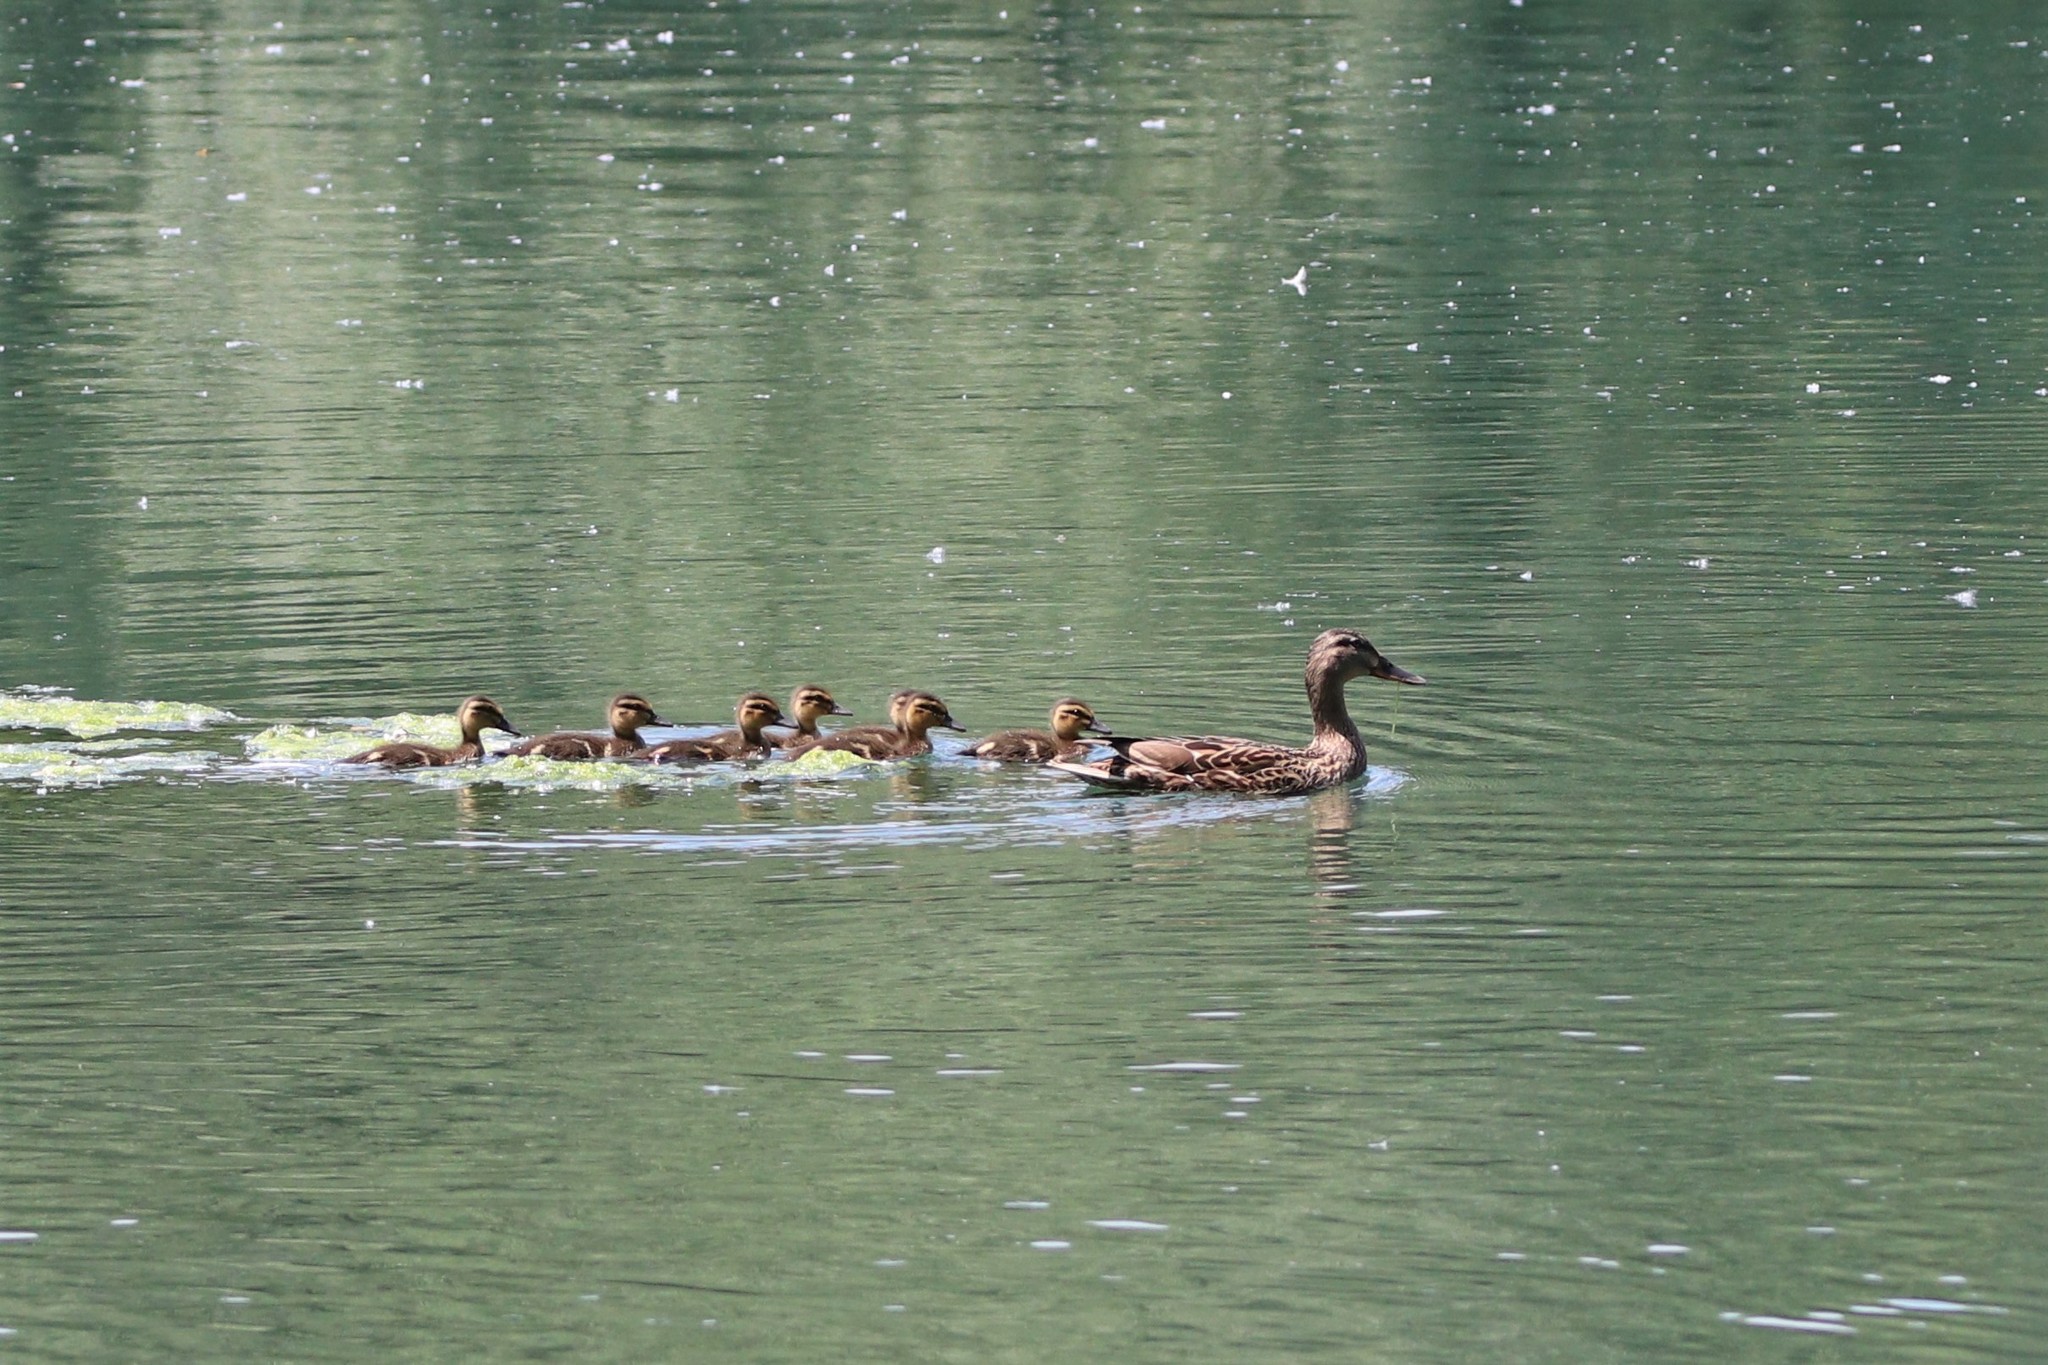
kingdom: Animalia
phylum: Chordata
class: Aves
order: Anseriformes
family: Anatidae
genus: Anas
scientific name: Anas platyrhynchos
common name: Mallard
